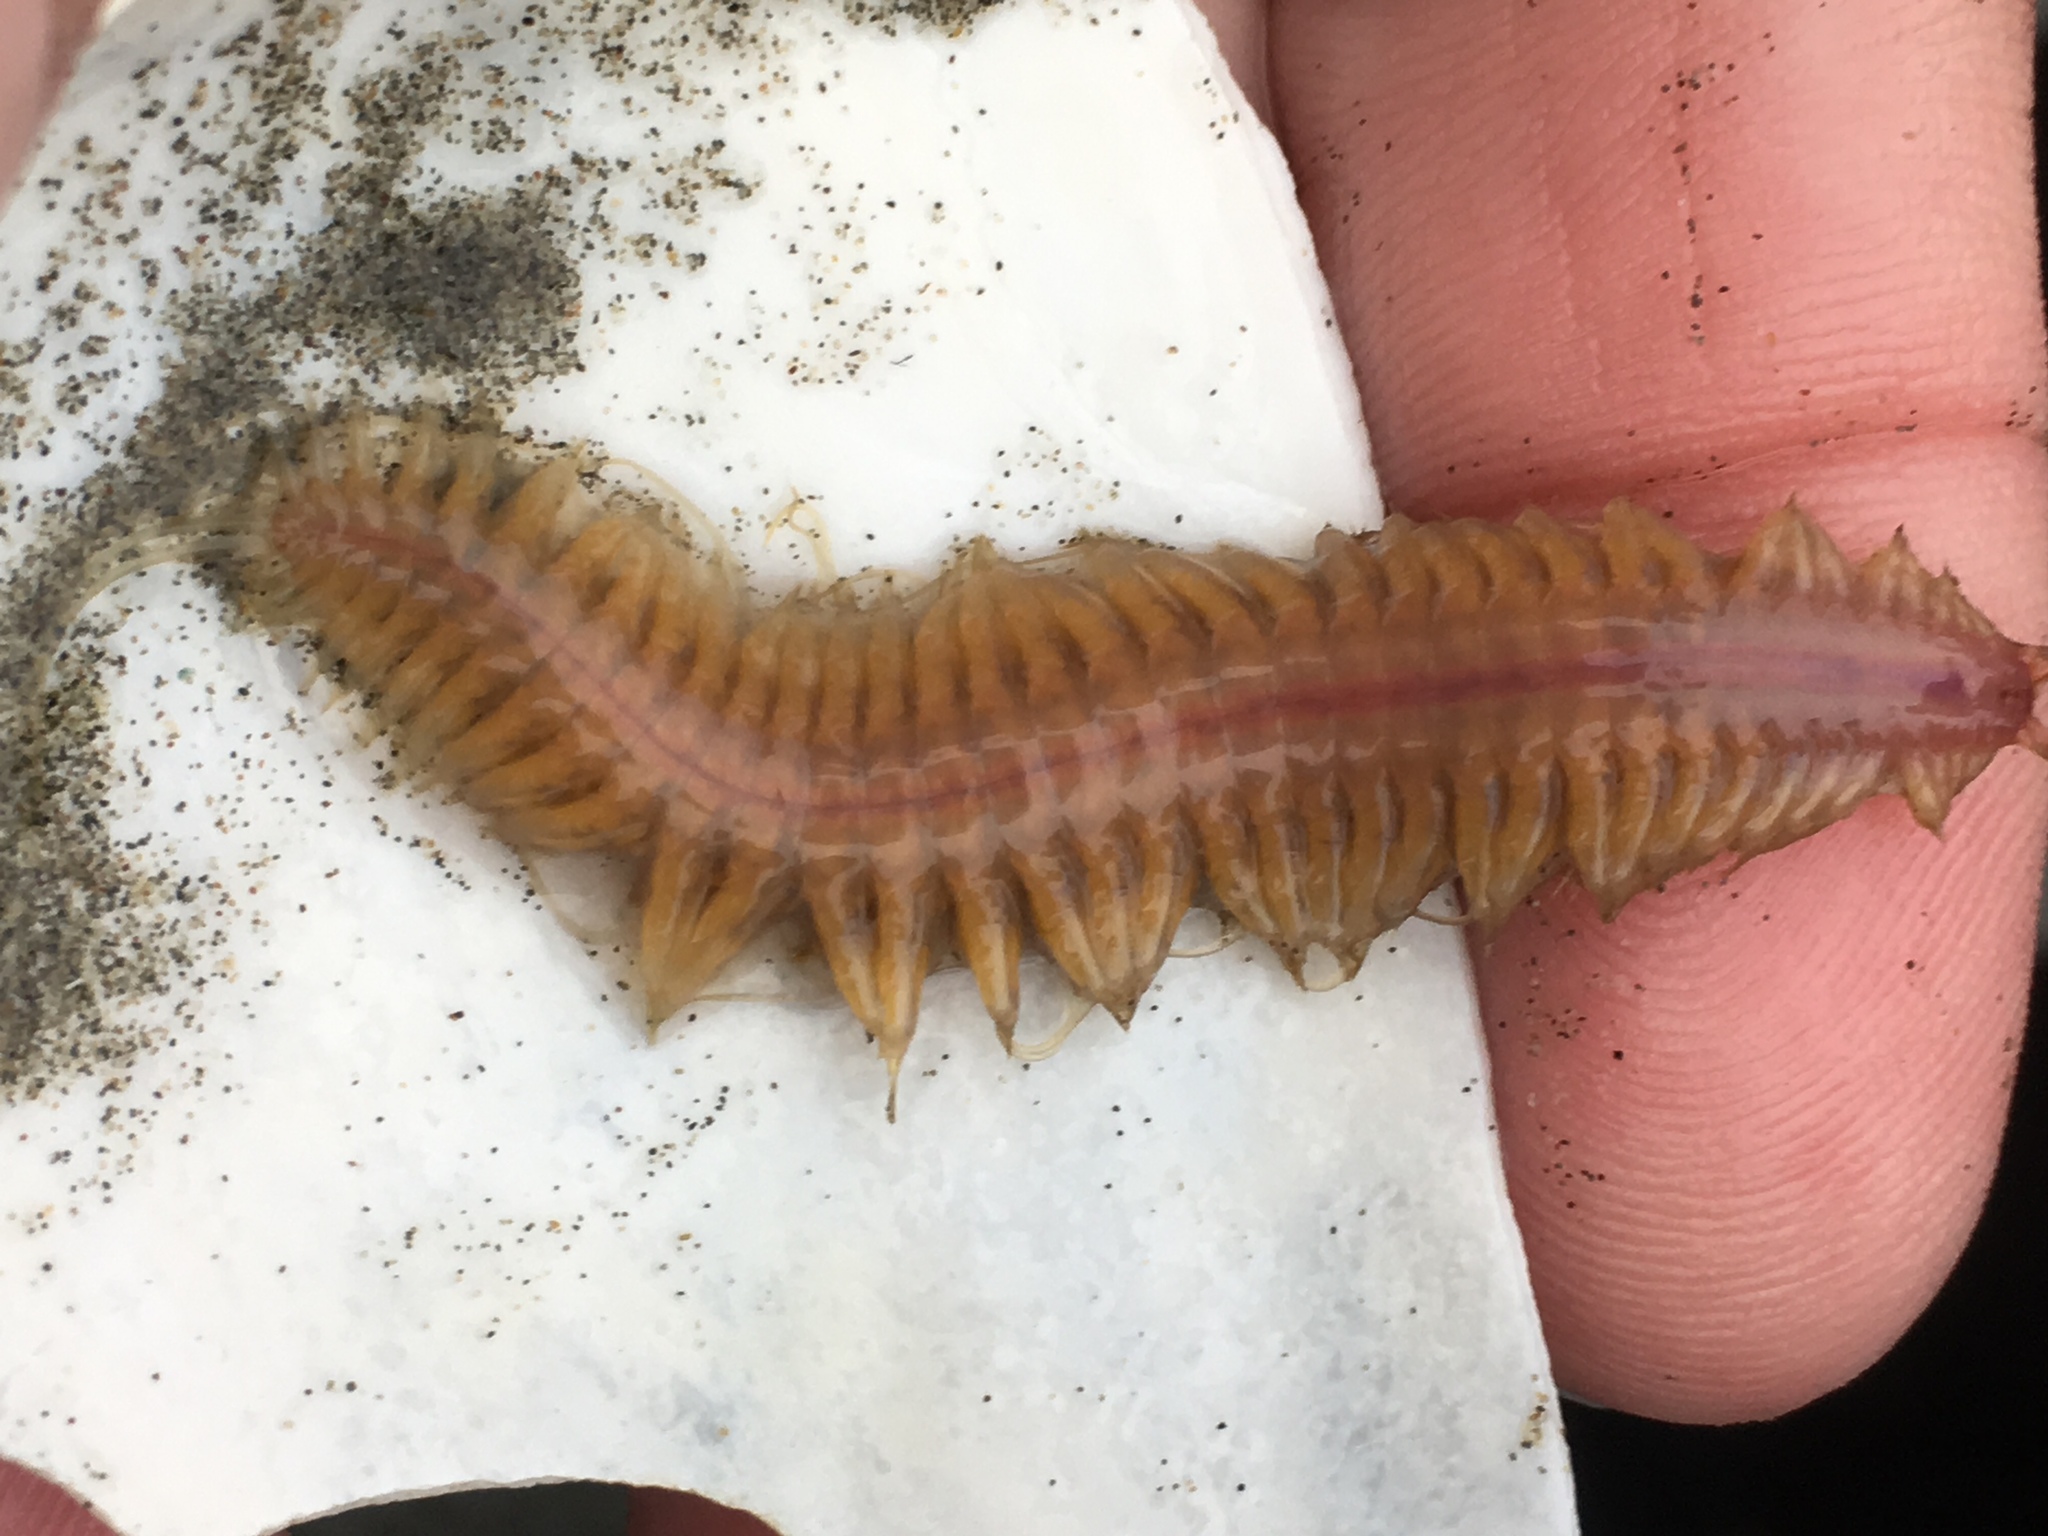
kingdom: Animalia
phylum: Annelida
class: Polychaeta
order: Phyllodocida
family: Polynoidae
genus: Hesperonoe
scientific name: Hesperonoe complanata
